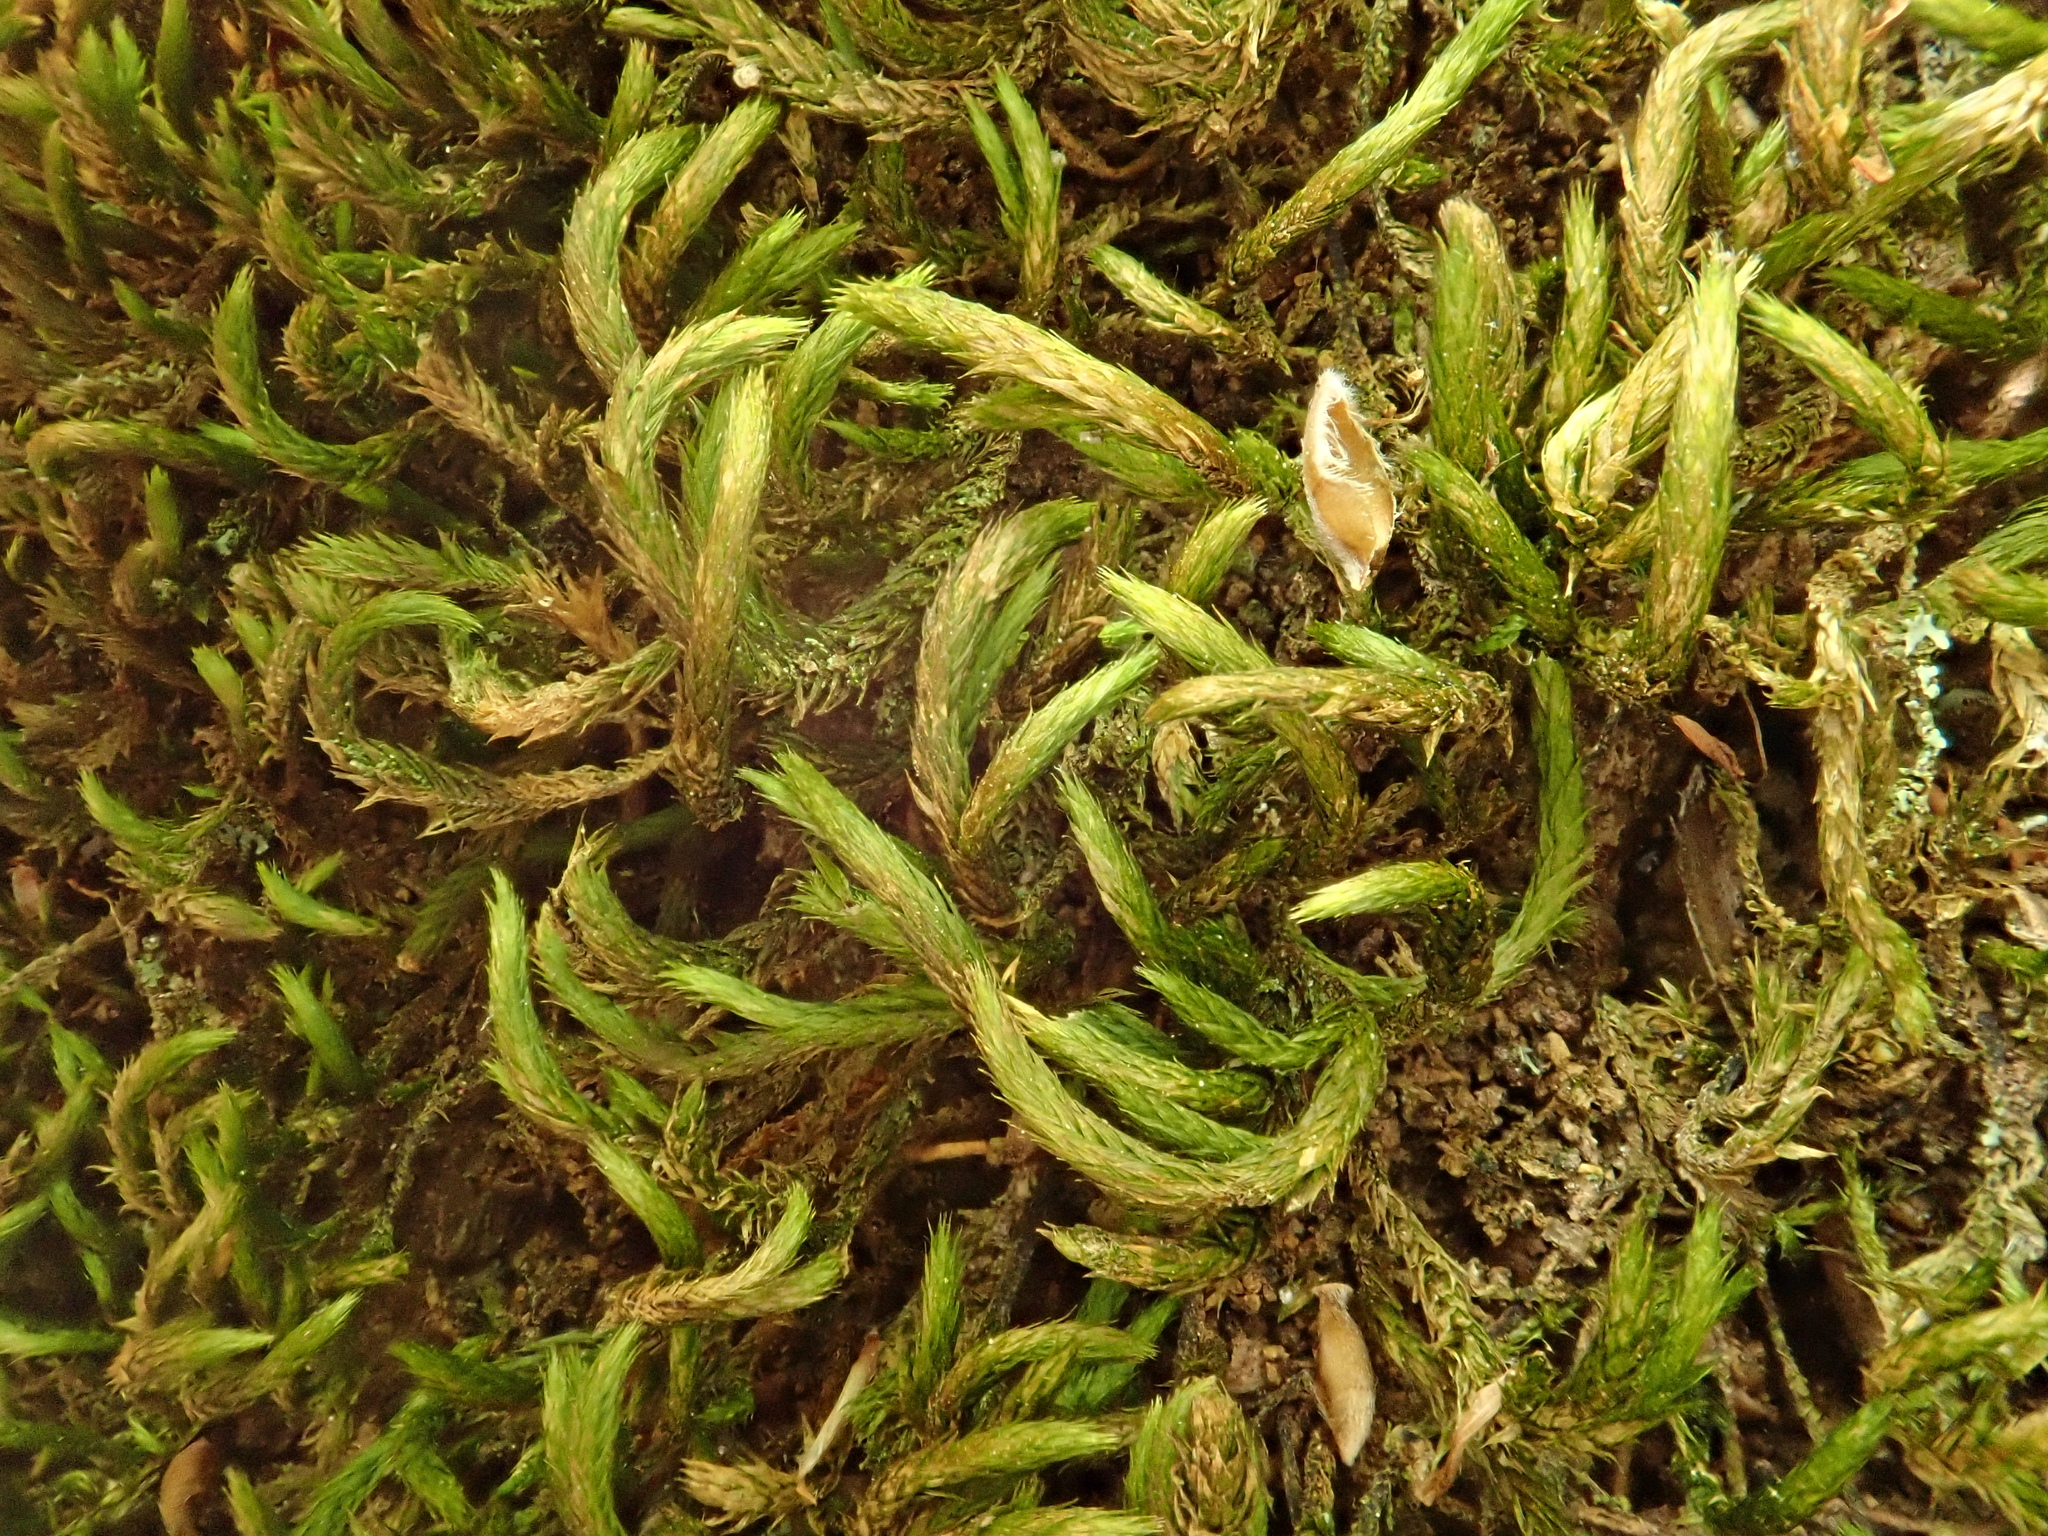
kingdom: Plantae
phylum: Bryophyta
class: Bryopsida
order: Hypnales
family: Leucodontaceae
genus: Leucodon
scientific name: Leucodon sciuroides
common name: Squirrel-tail moss
